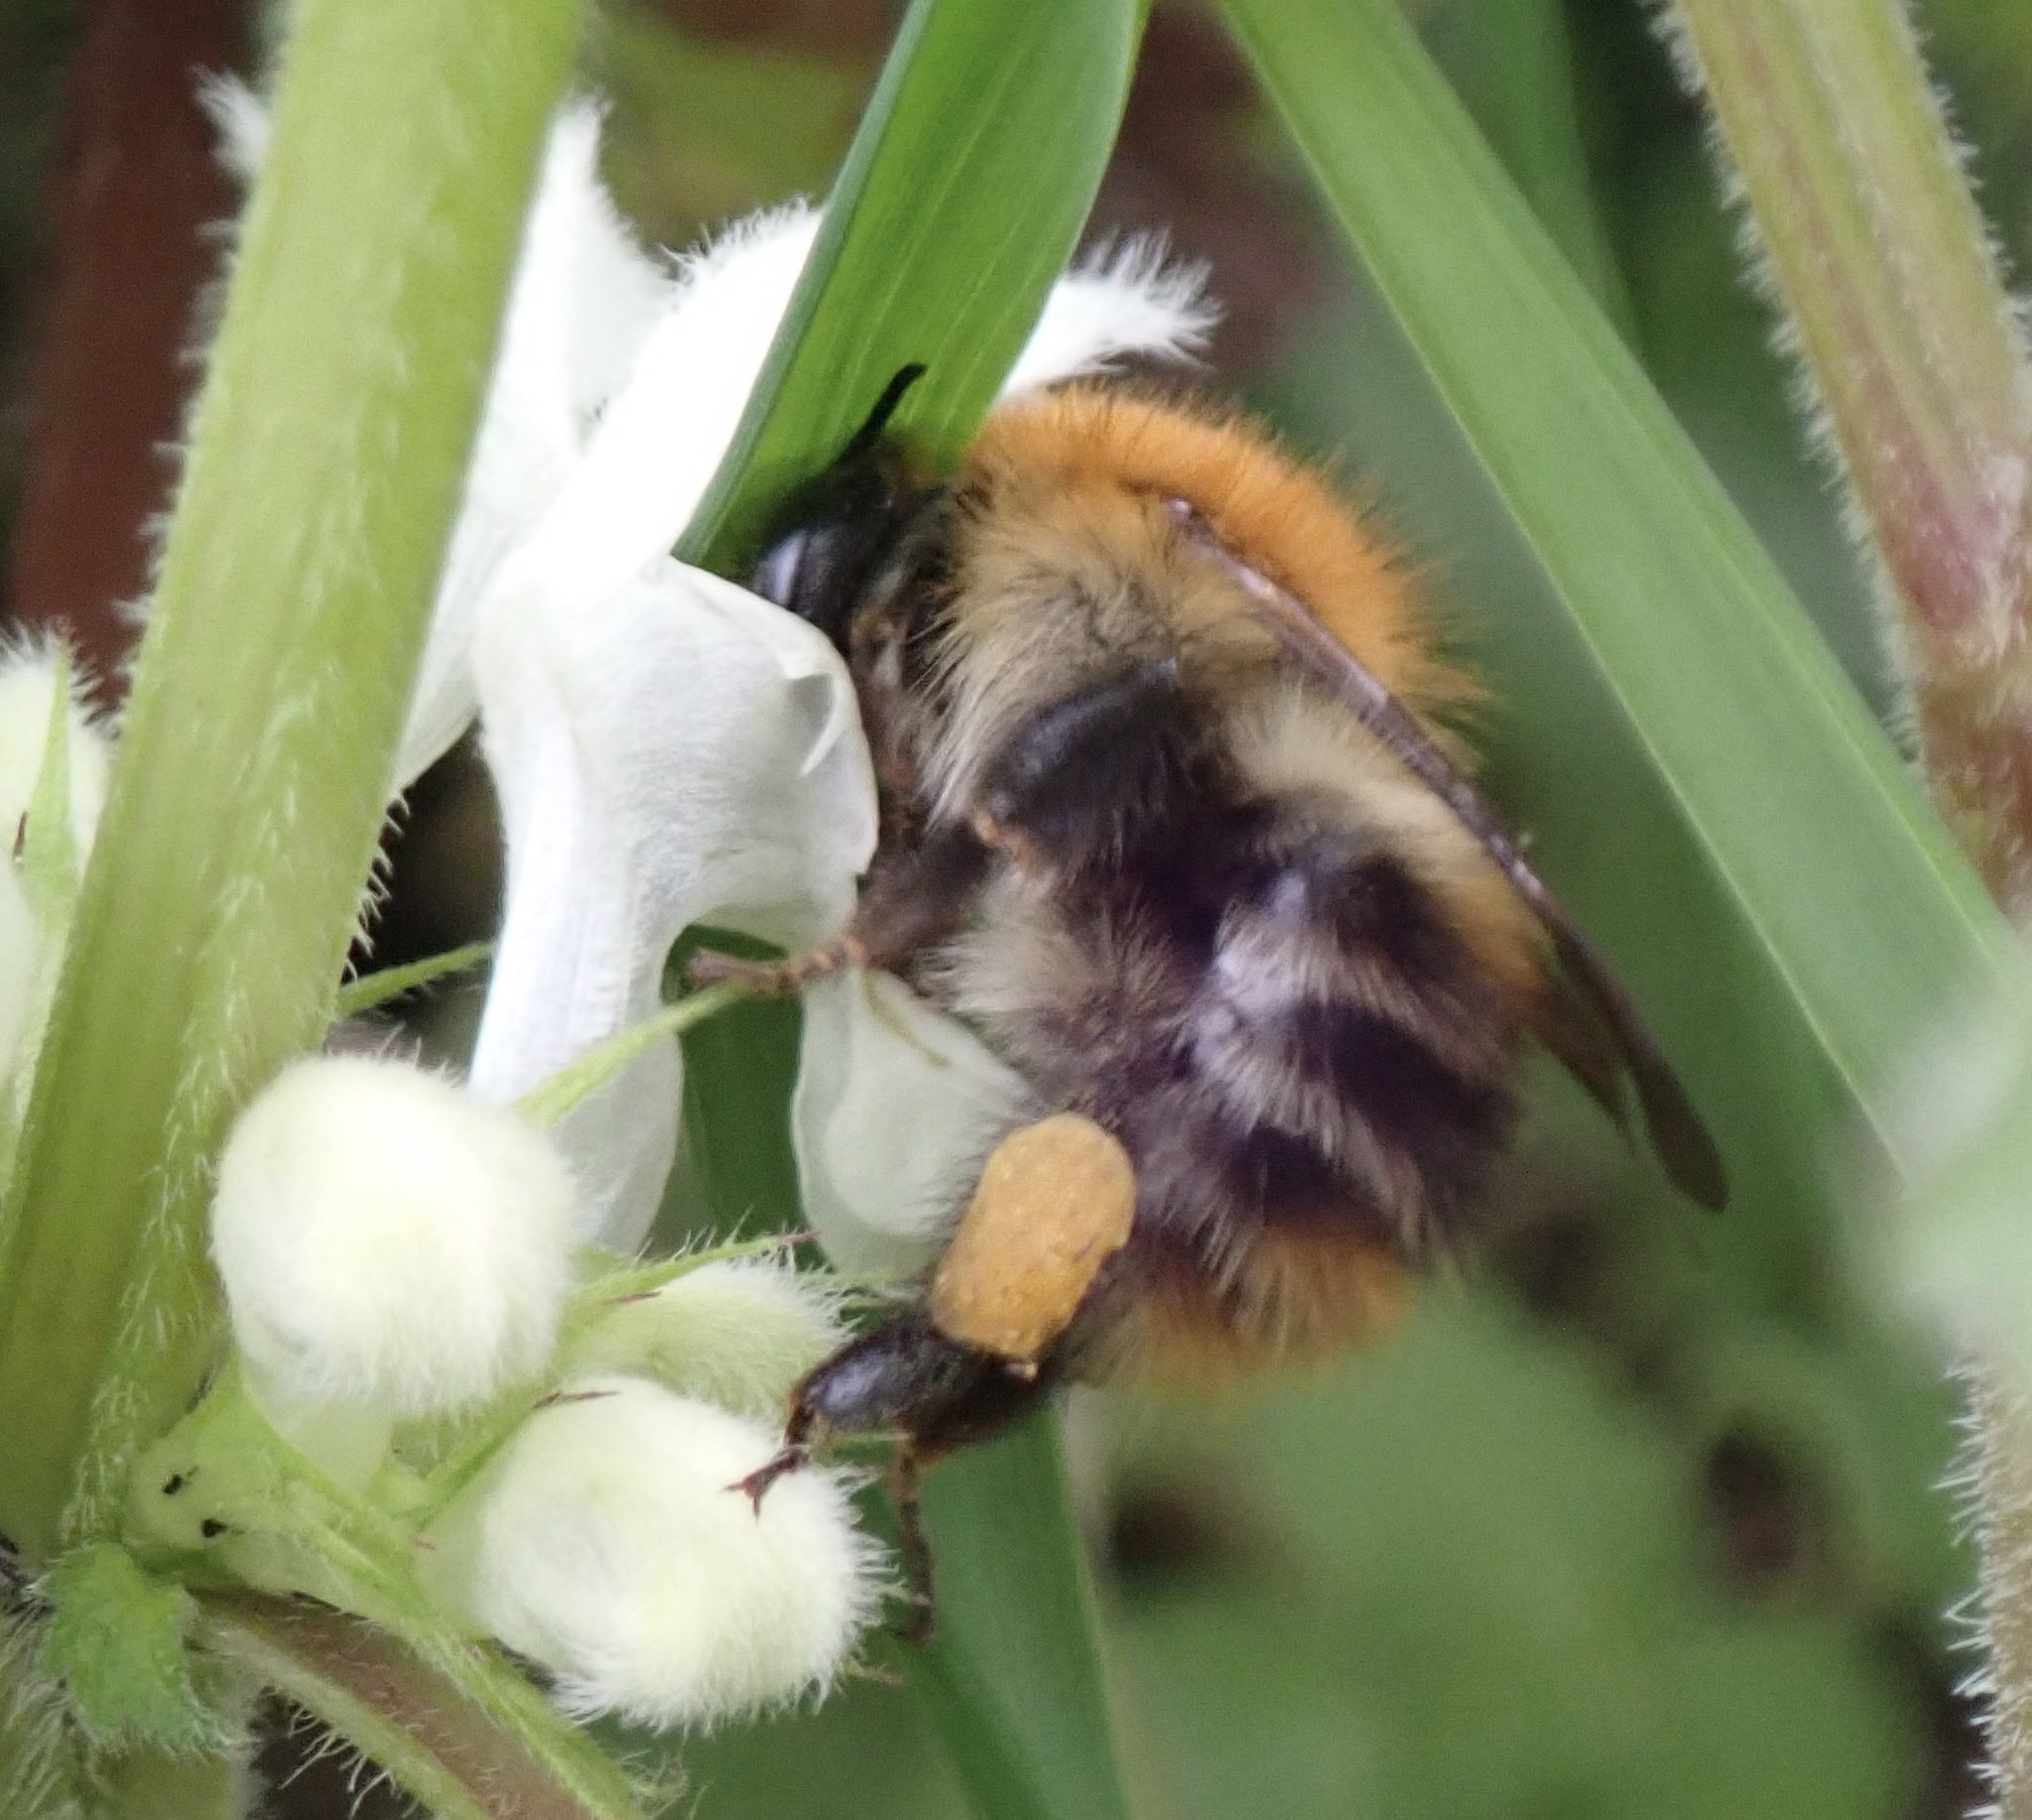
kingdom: Animalia
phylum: Arthropoda
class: Insecta
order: Hymenoptera
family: Apidae
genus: Bombus
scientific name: Bombus pascuorum
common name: Common carder bee
